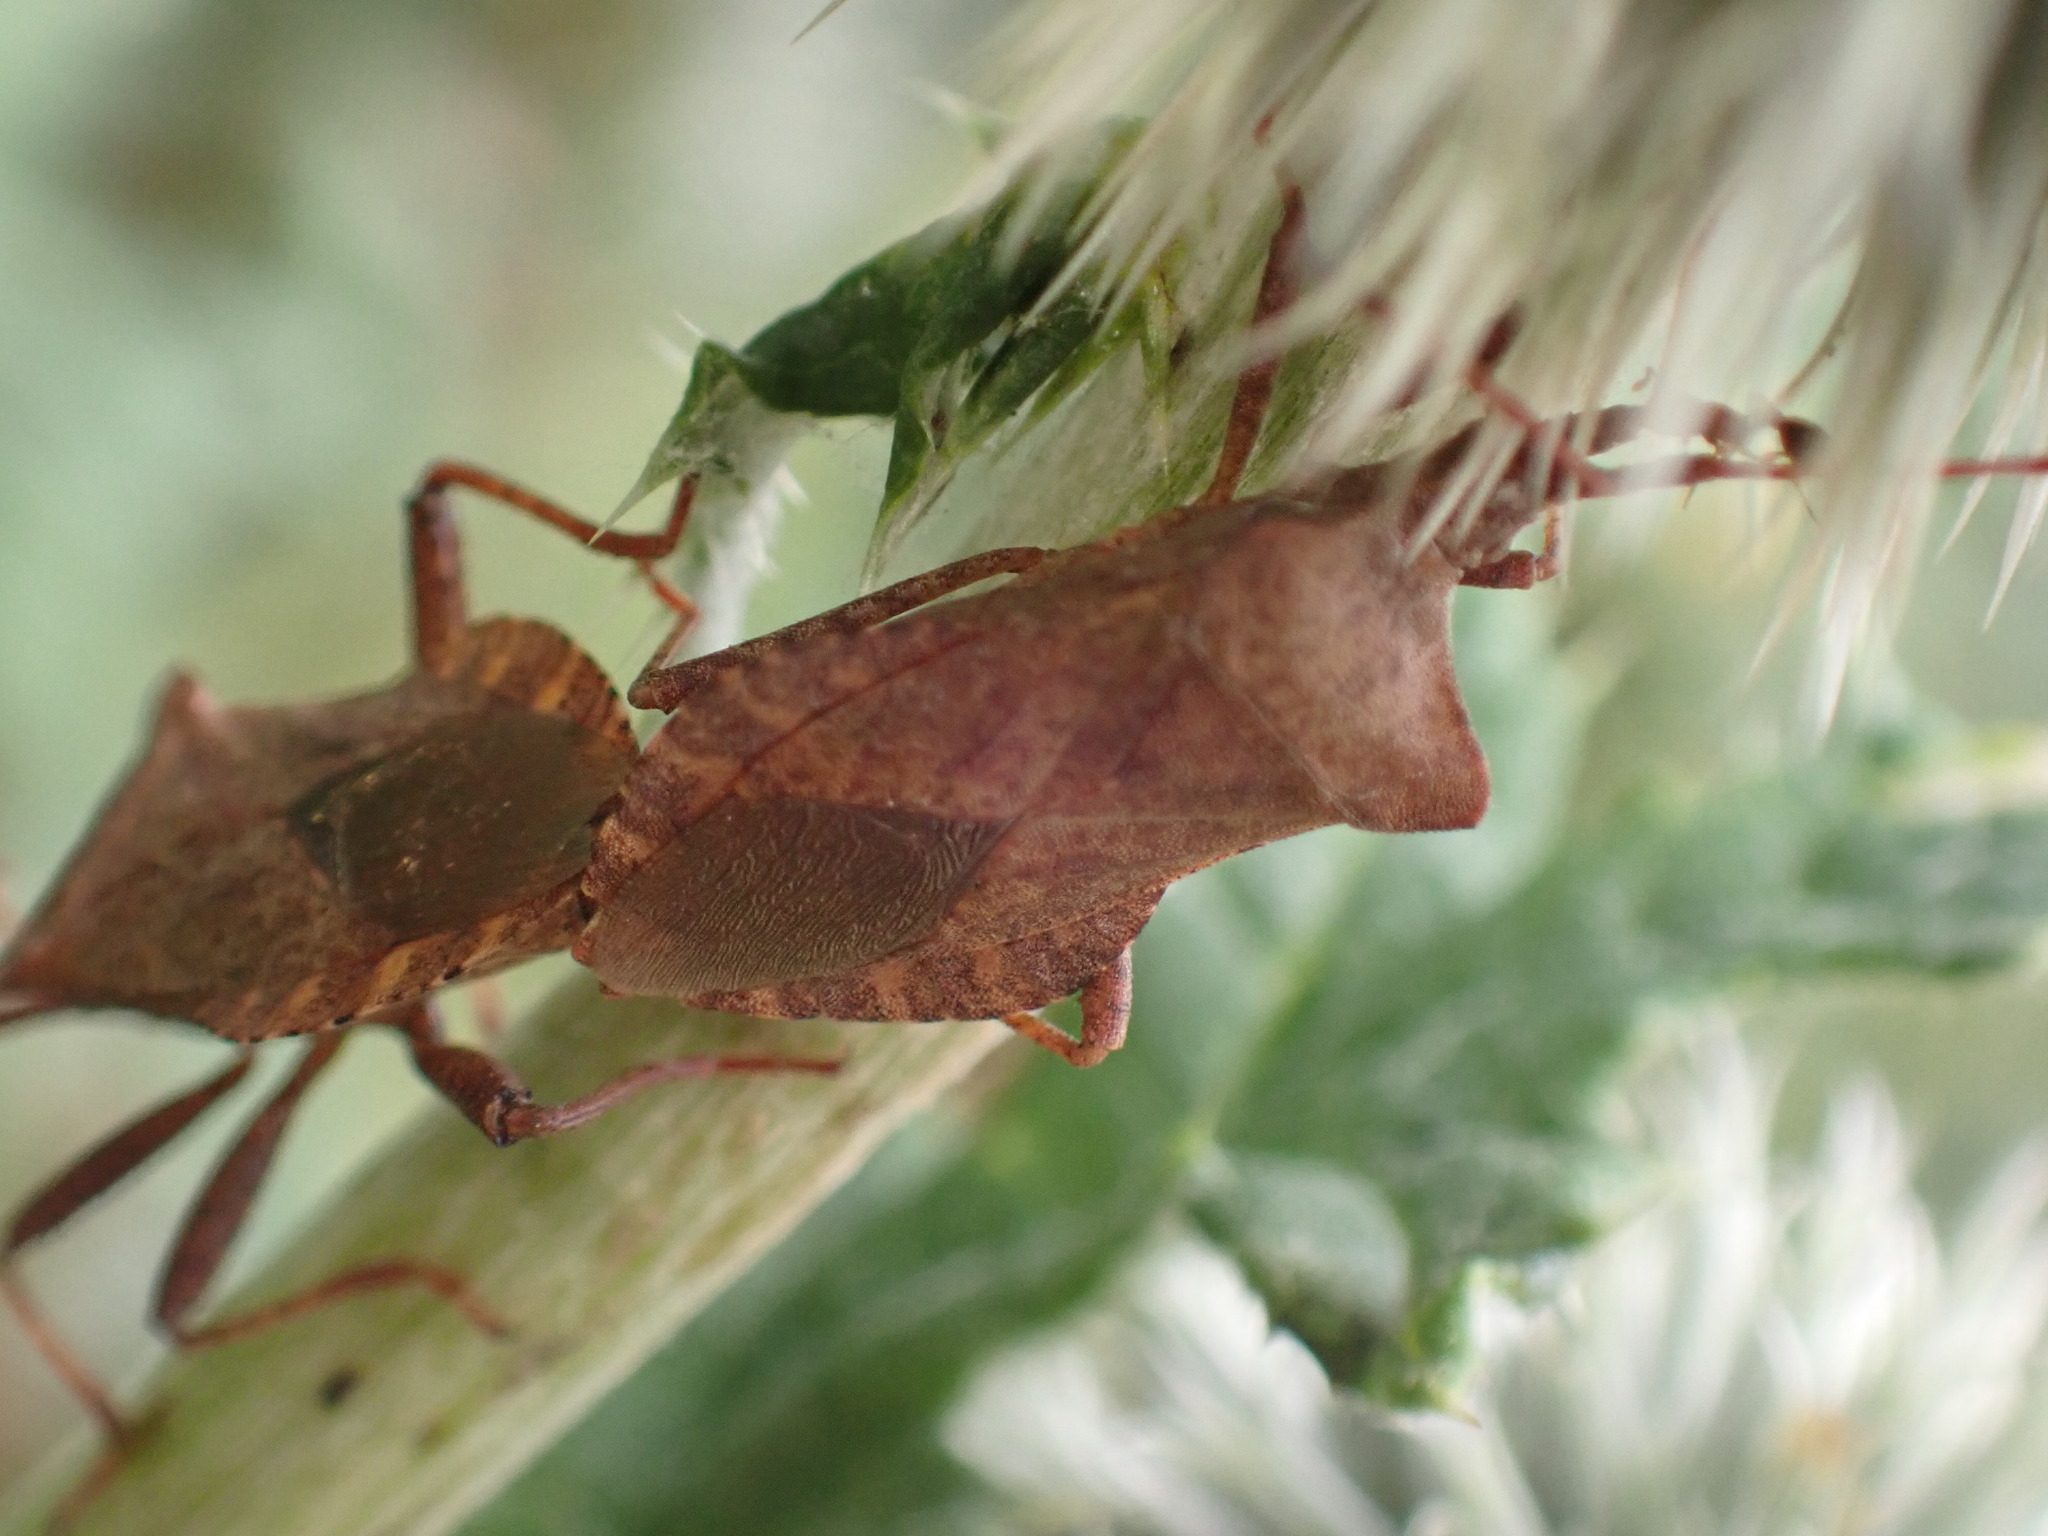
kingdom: Animalia
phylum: Arthropoda
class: Insecta
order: Hemiptera
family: Coreidae
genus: Coreus
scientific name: Coreus marginatus
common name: Dock bug
